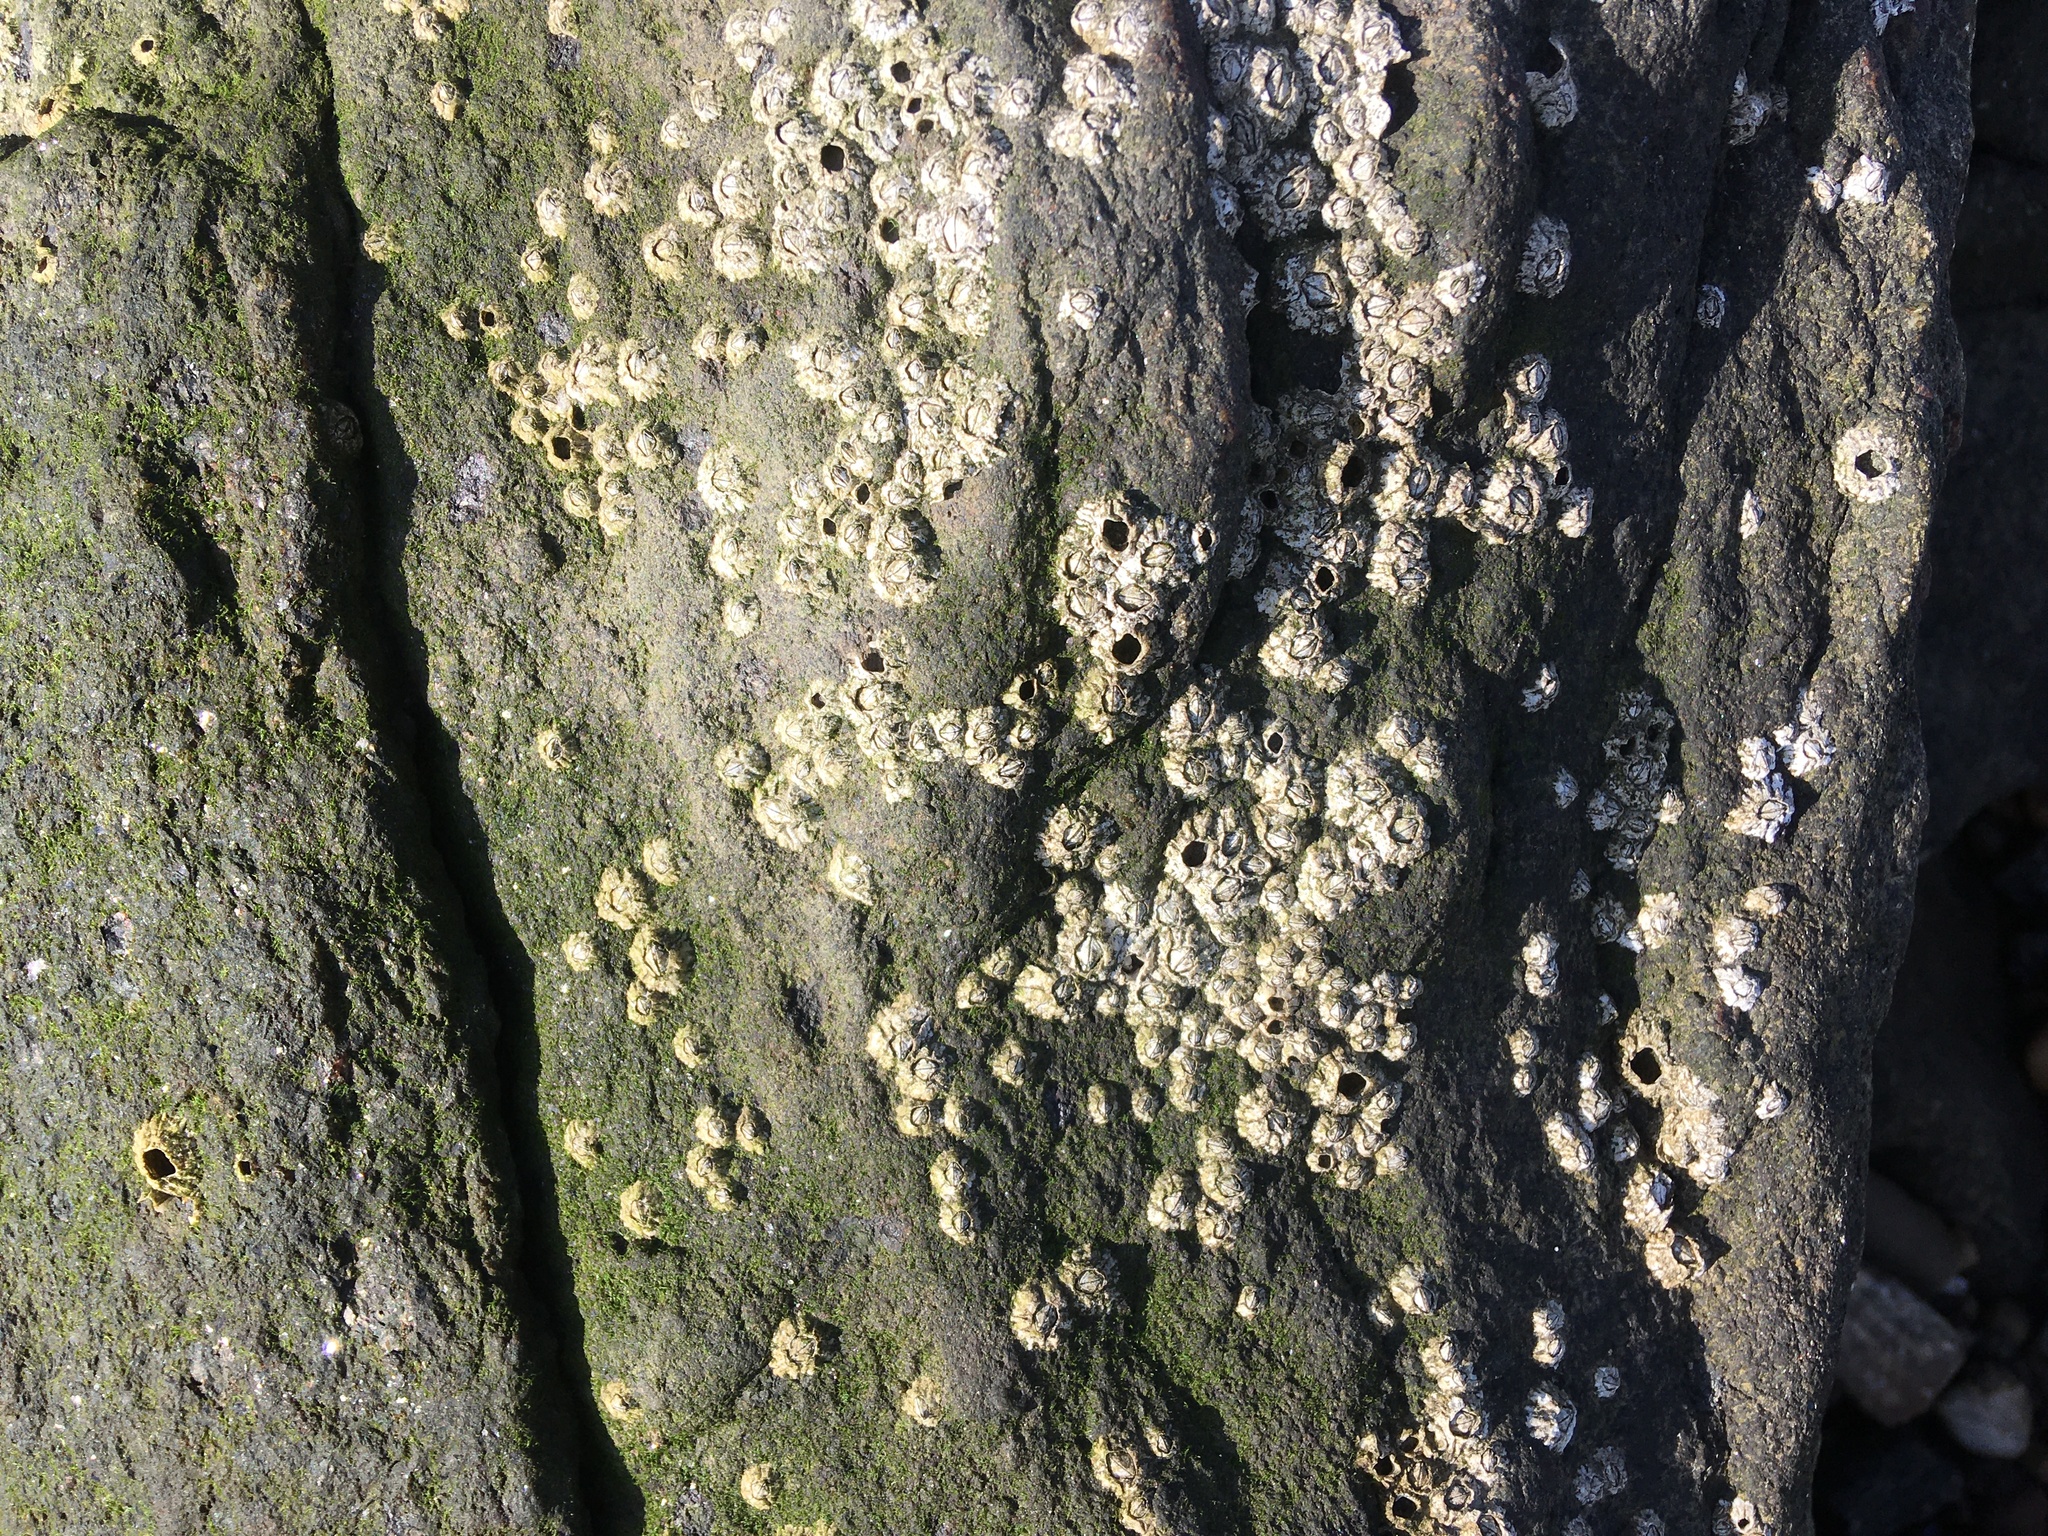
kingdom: Animalia
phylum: Arthropoda
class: Maxillopoda
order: Sessilia
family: Archaeobalanidae
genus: Semibalanus
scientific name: Semibalanus balanoides
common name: Acorn barnacle
